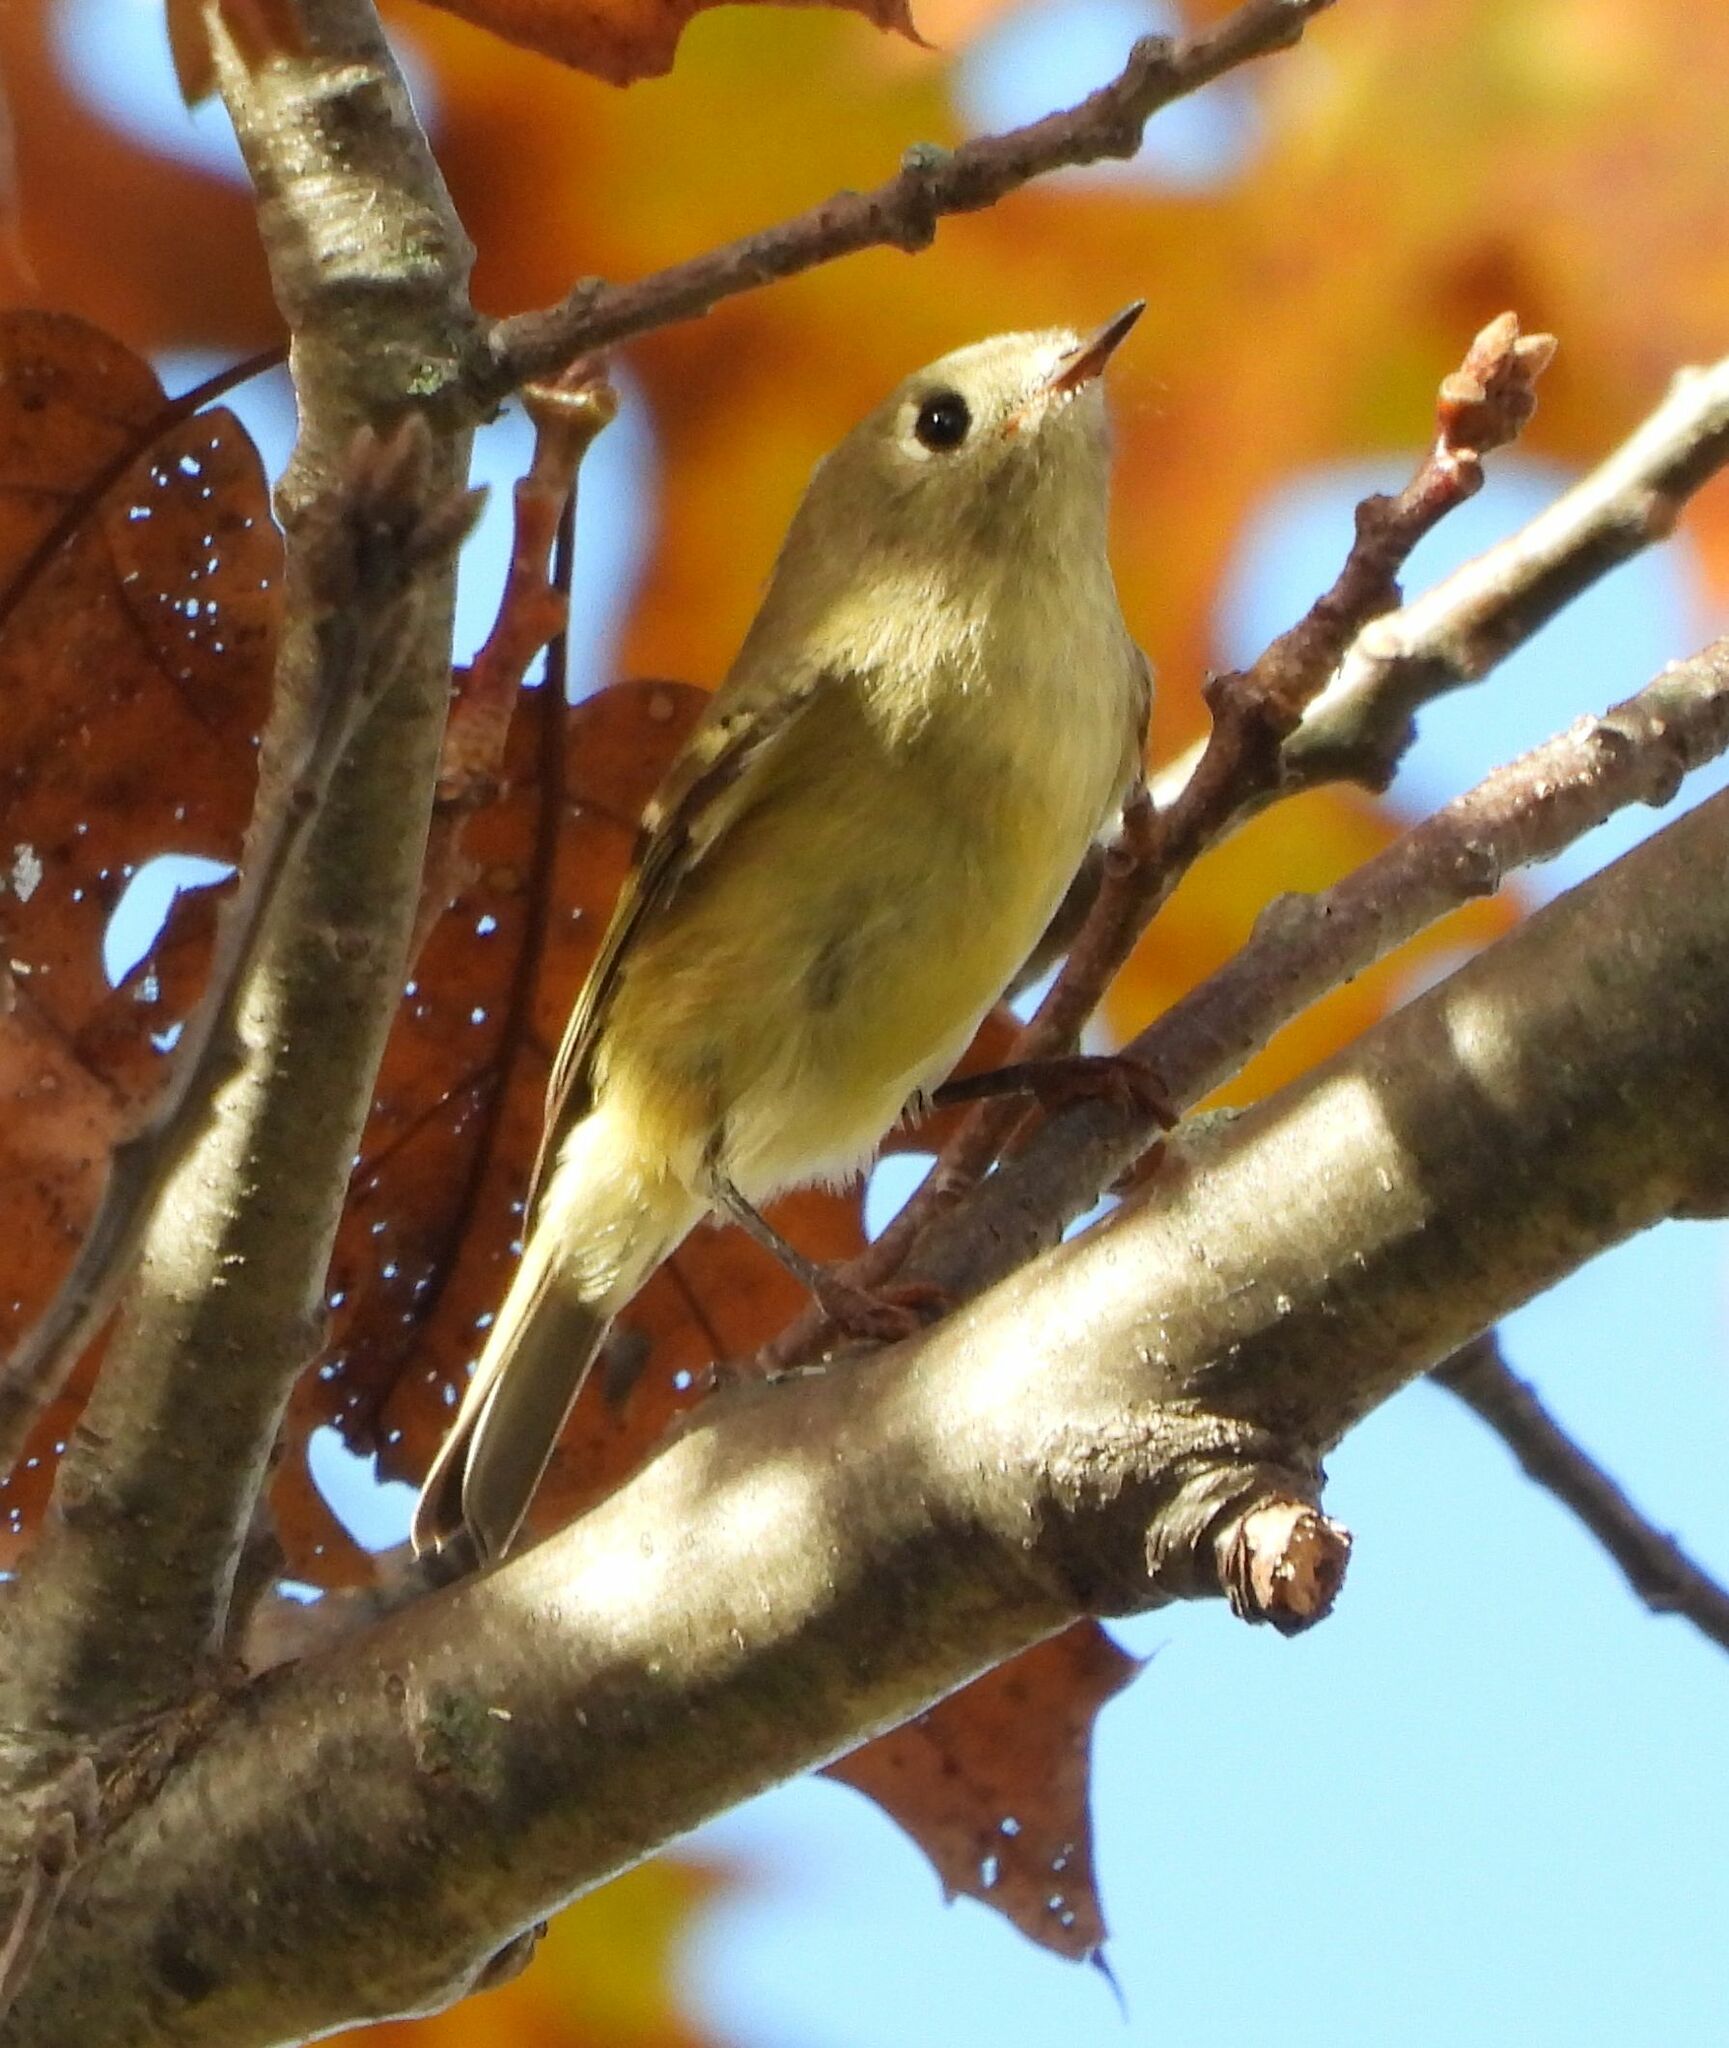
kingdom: Animalia
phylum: Chordata
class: Aves
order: Passeriformes
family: Regulidae
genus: Regulus
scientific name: Regulus calendula
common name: Ruby-crowned kinglet
